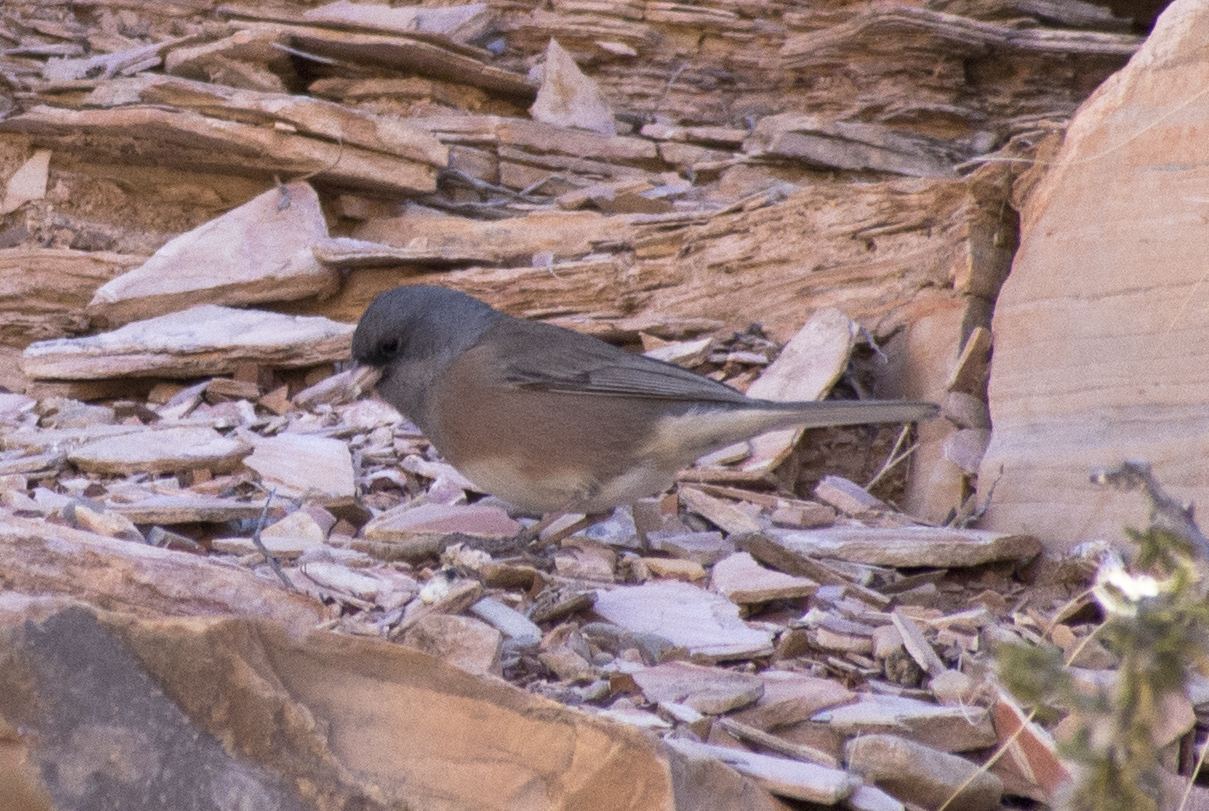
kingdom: Animalia
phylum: Chordata
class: Aves
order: Passeriformes
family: Passerellidae
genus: Junco
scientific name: Junco hyemalis
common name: Dark-eyed junco
